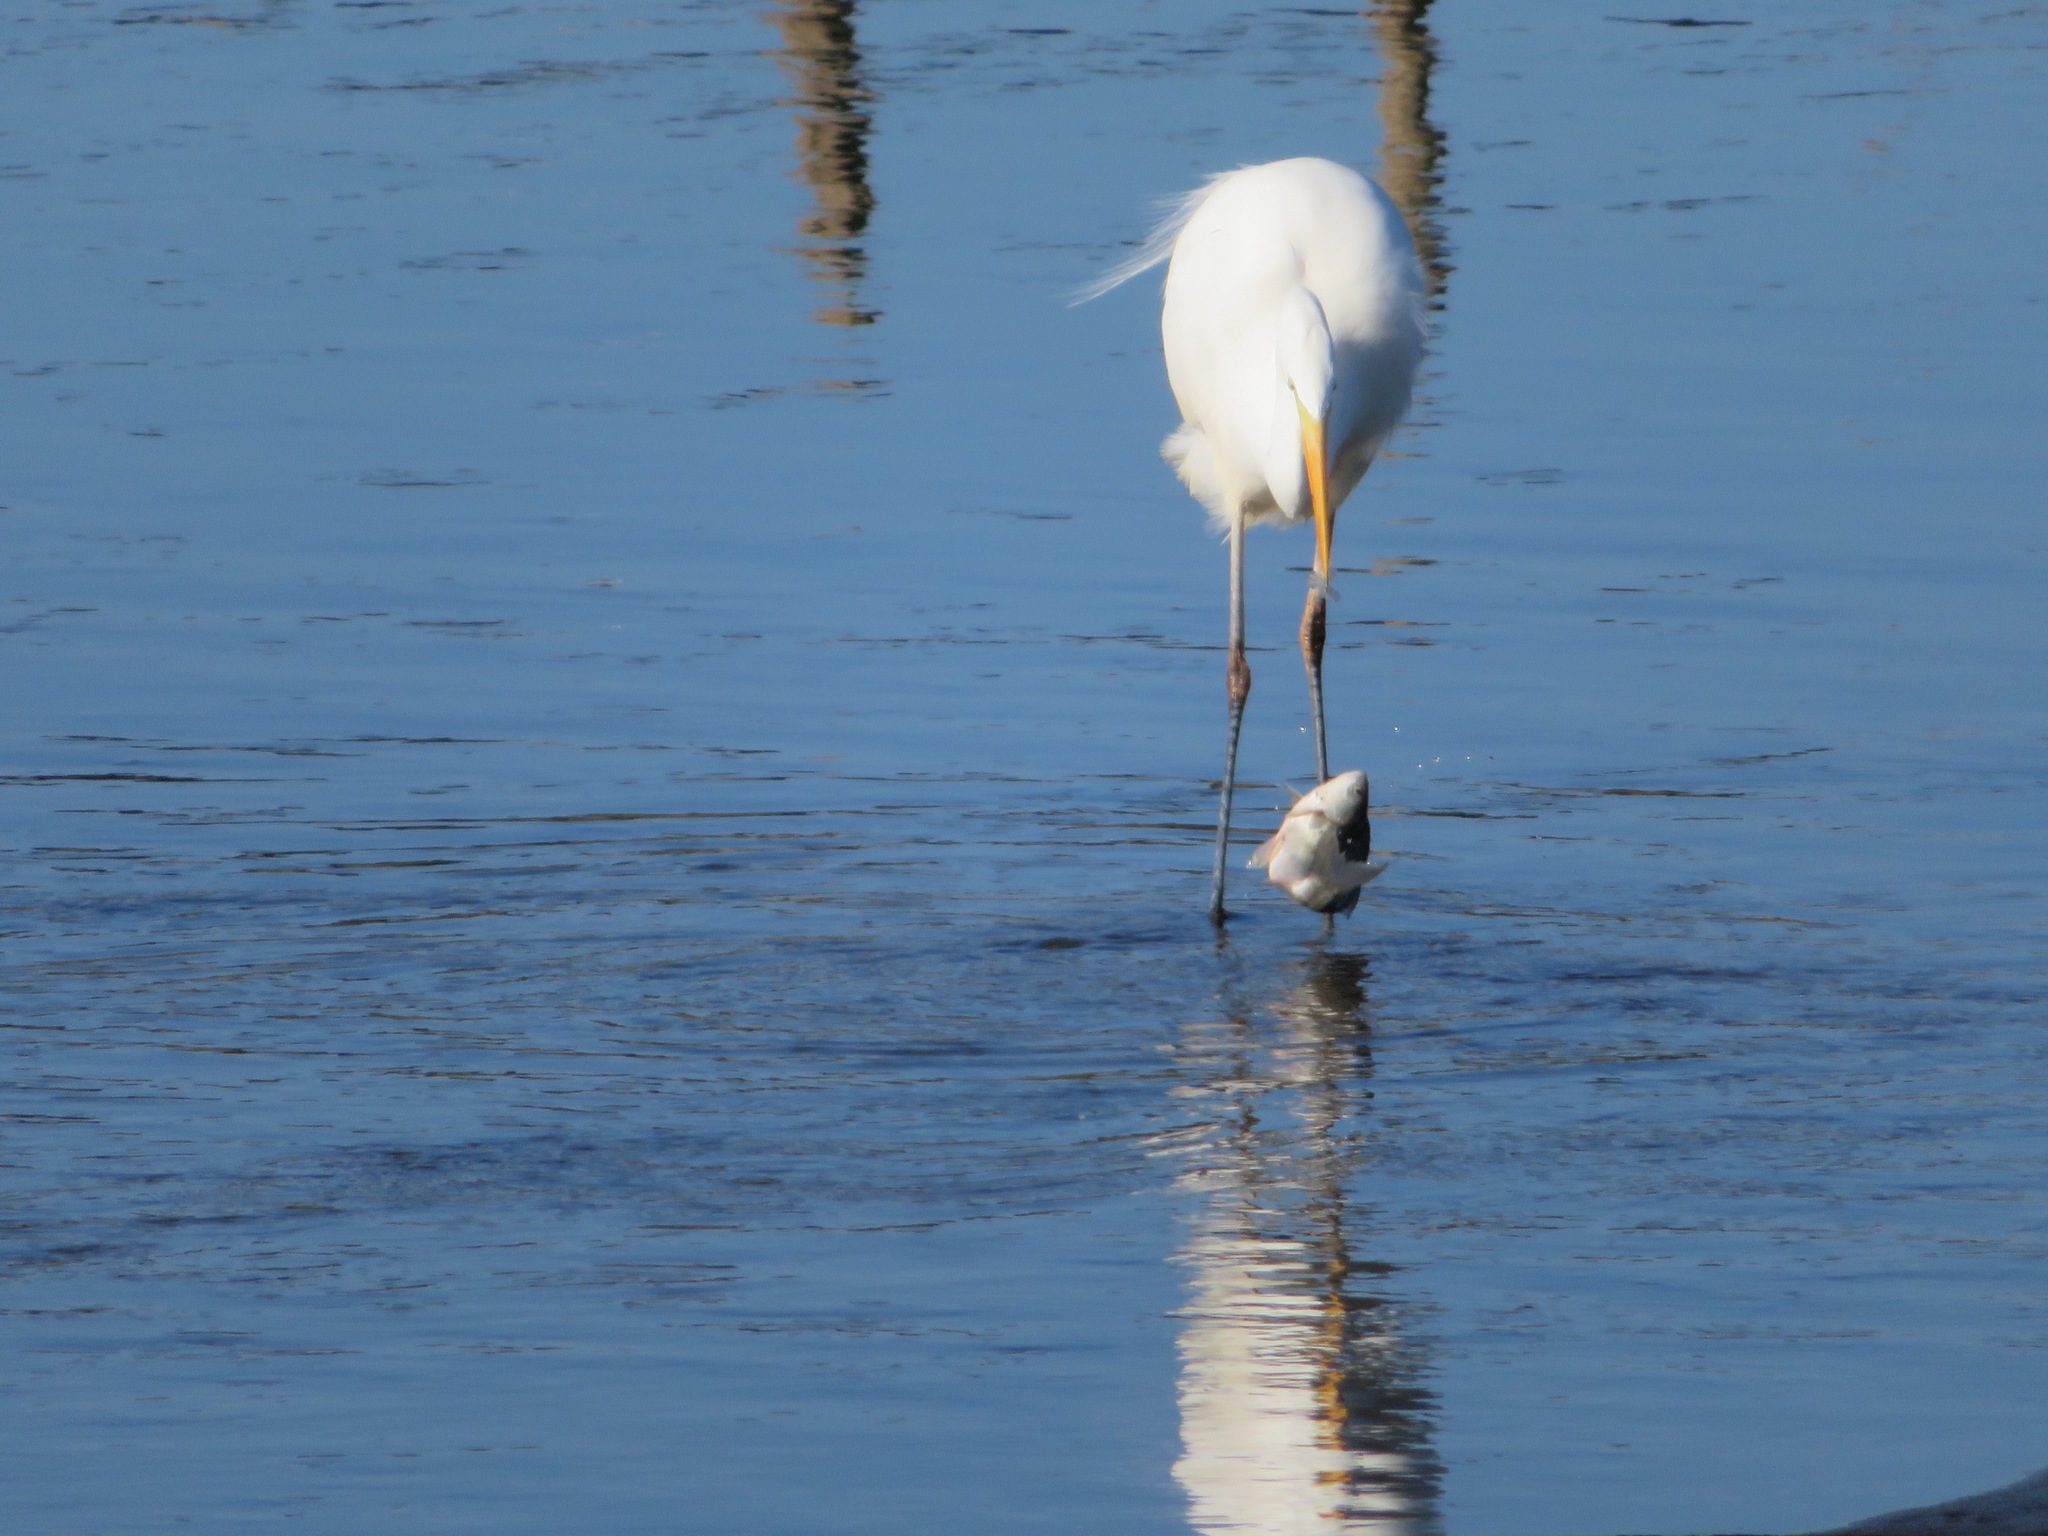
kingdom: Animalia
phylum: Chordata
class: Aves
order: Pelecaniformes
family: Ardeidae
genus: Ardea
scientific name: Ardea alba
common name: Great egret
